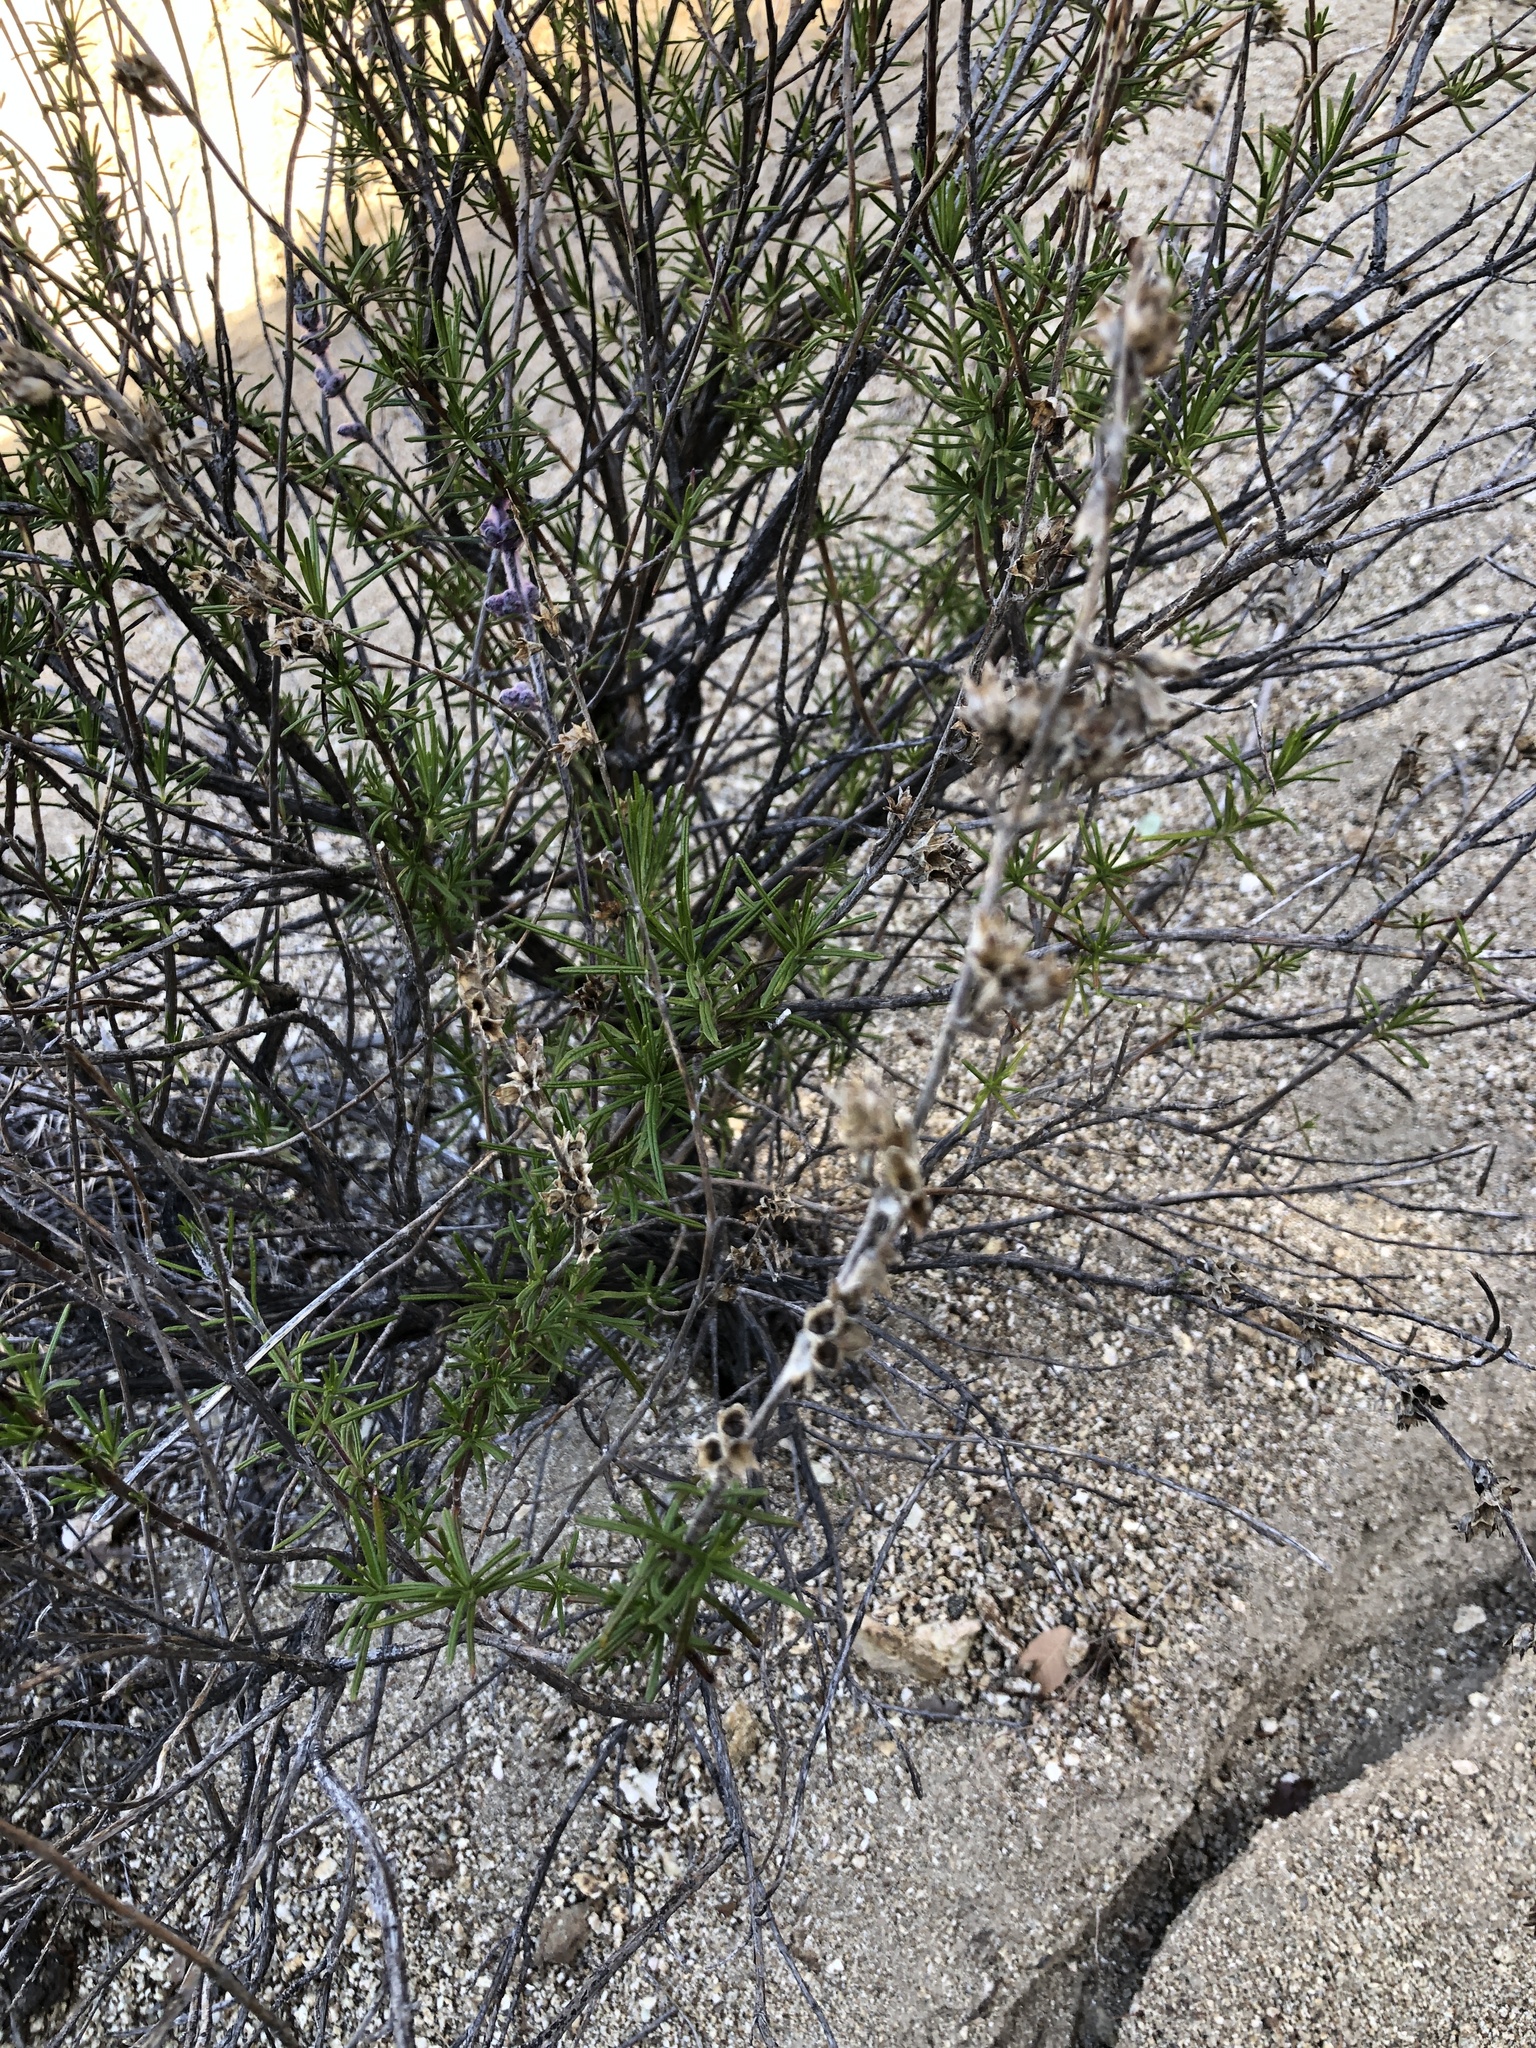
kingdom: Plantae
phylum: Tracheophyta
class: Magnoliopsida
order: Lamiales
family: Lamiaceae
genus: Trichostema
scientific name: Trichostema lanatum
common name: Woolly bluecurls
